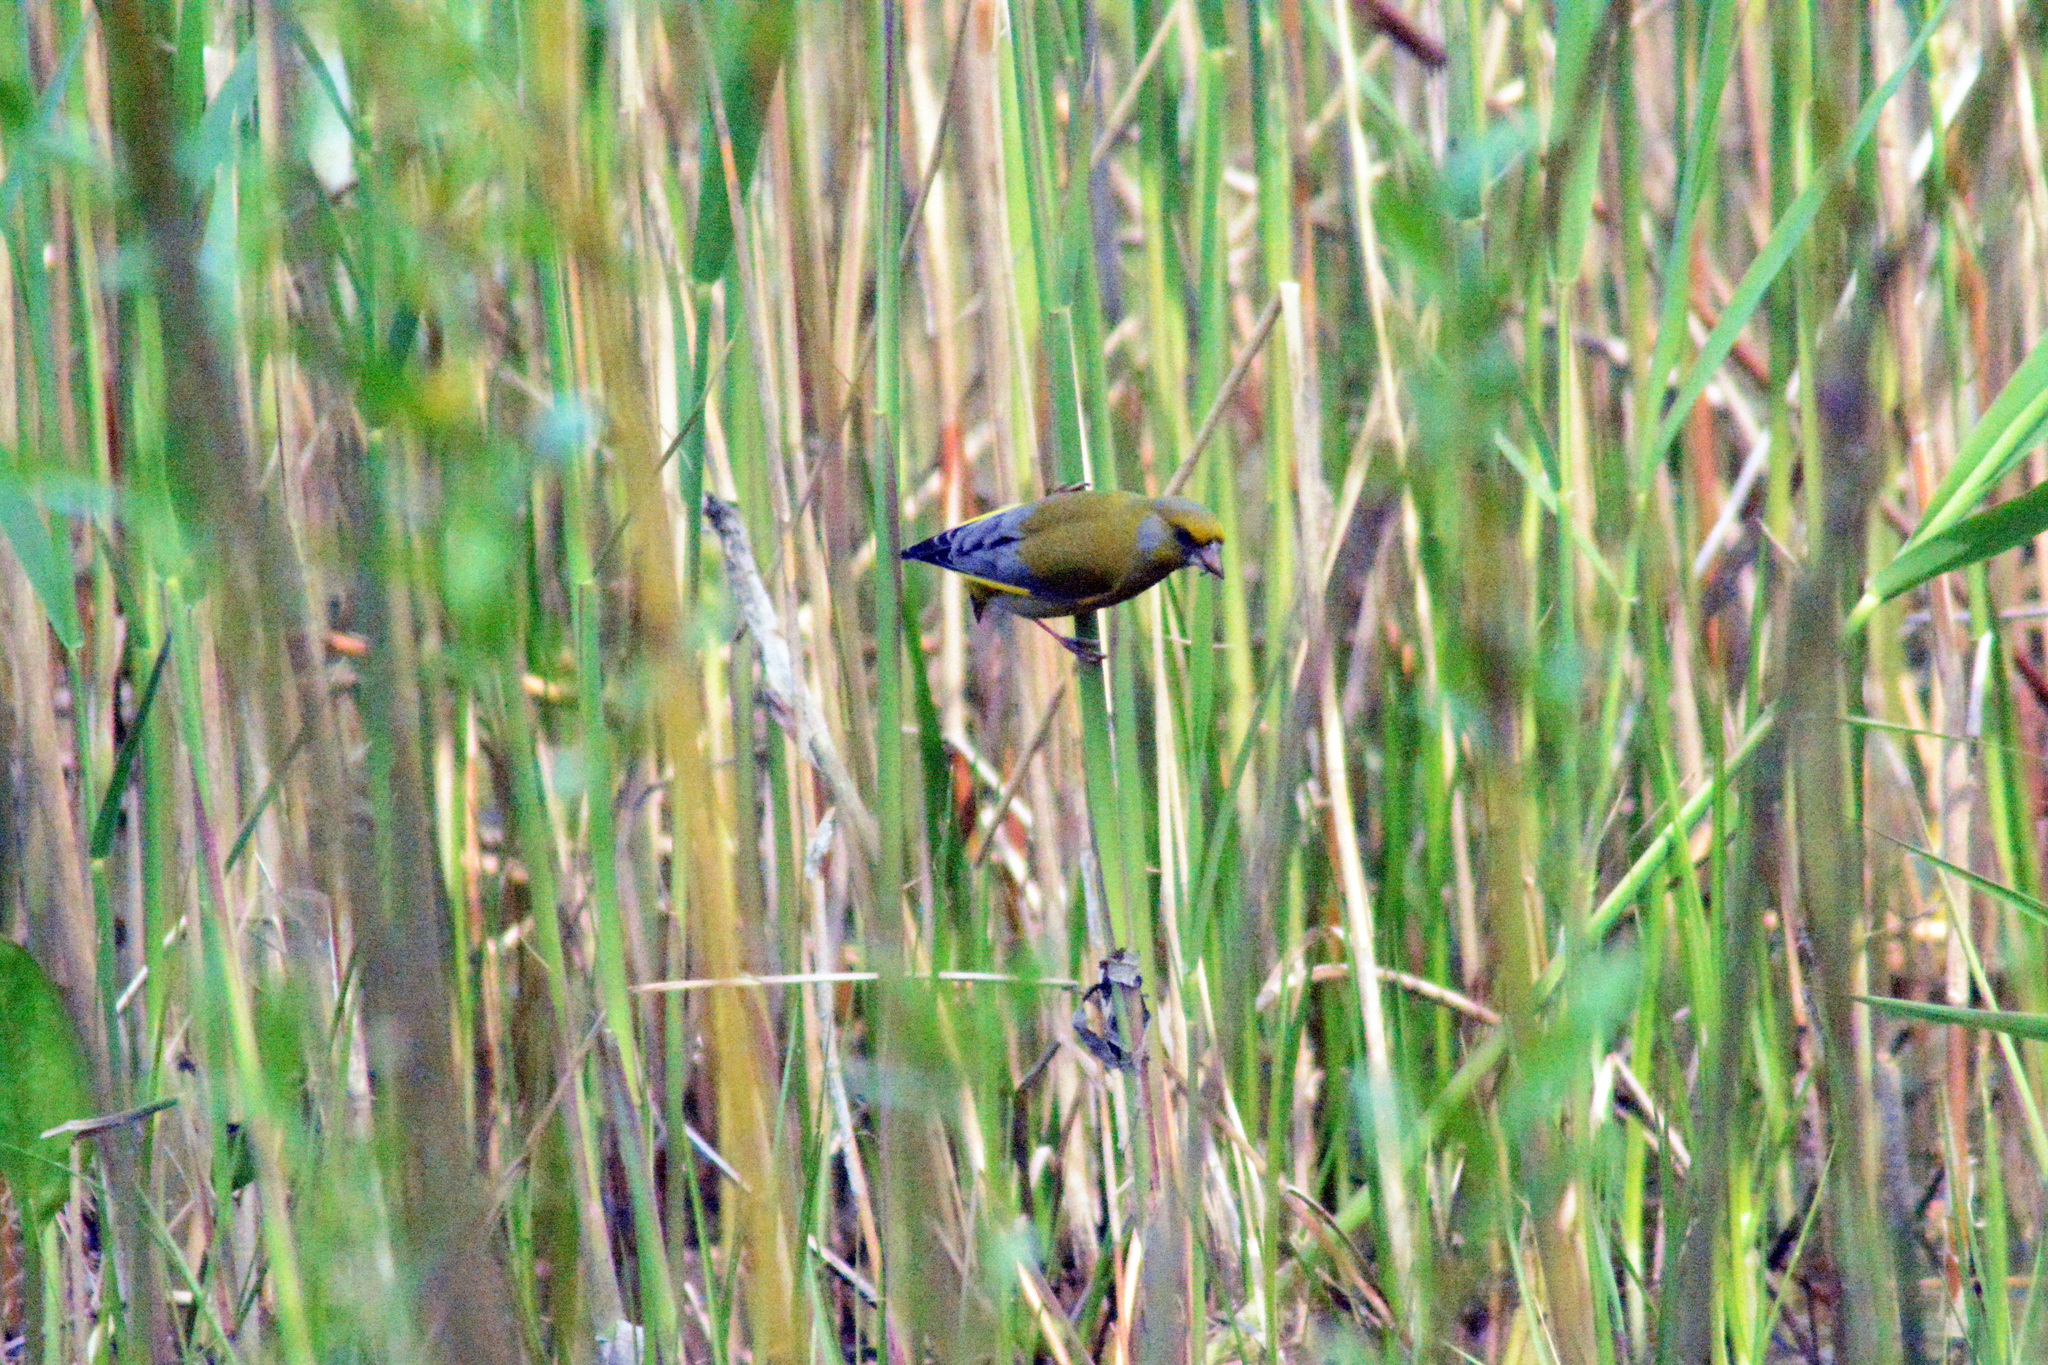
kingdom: Plantae
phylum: Tracheophyta
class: Liliopsida
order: Poales
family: Poaceae
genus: Chloris
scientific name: Chloris chloris
